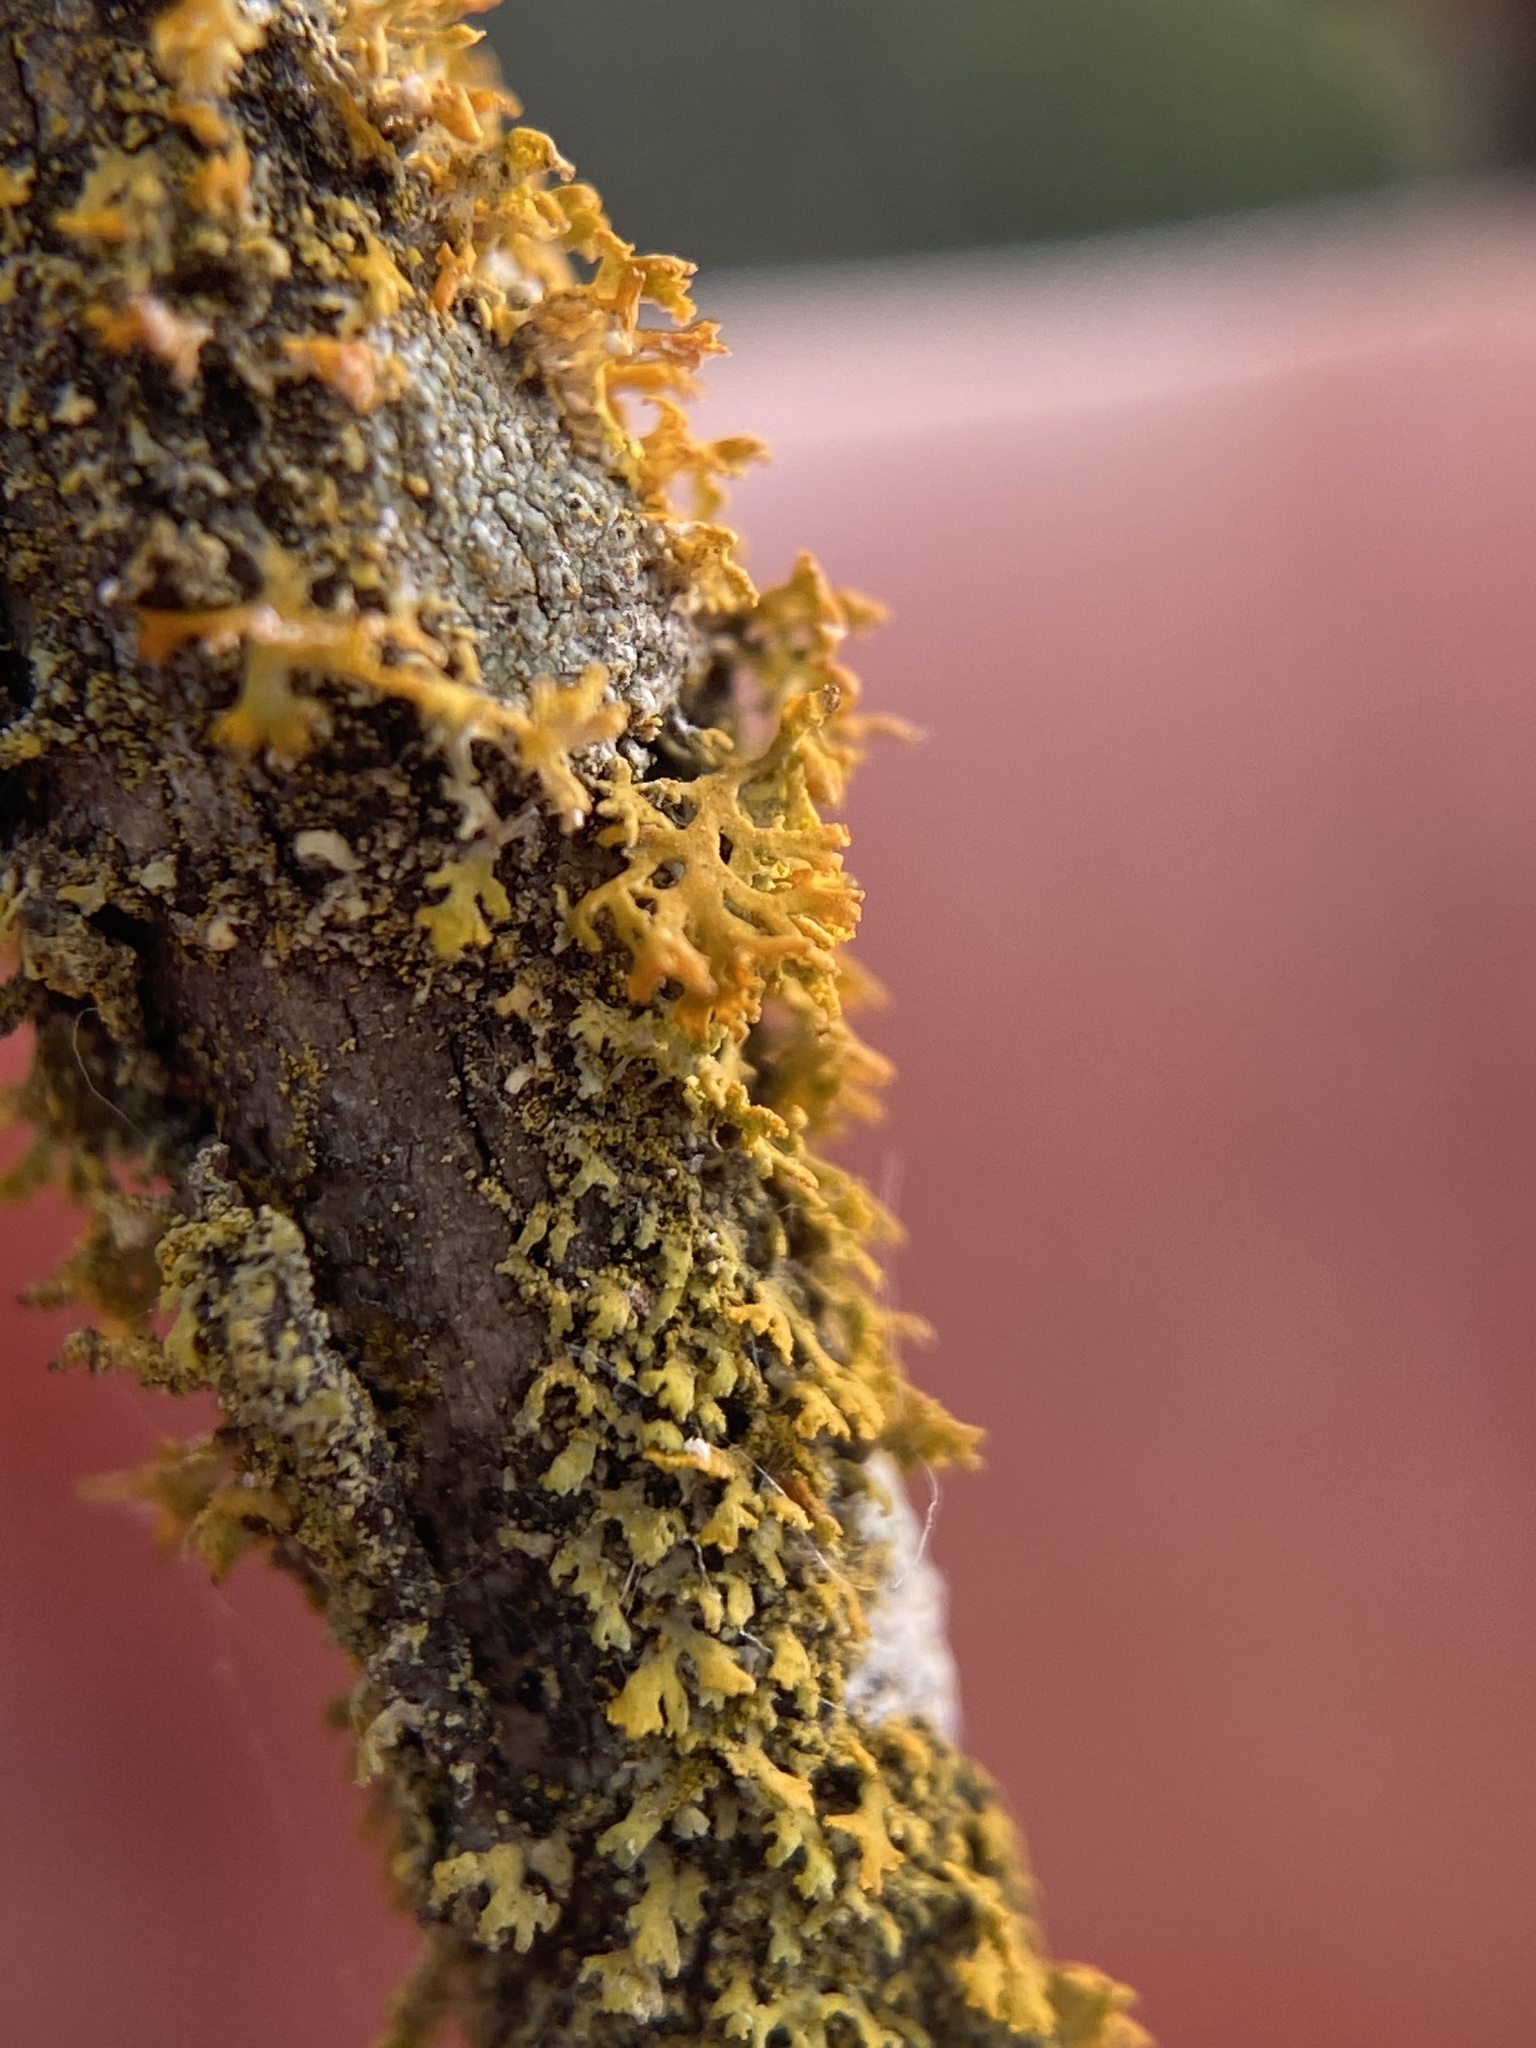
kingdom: Fungi
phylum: Ascomycota
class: Lecanoromycetes
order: Teloschistales
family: Teloschistaceae
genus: Gallowayella
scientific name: Gallowayella weberi
